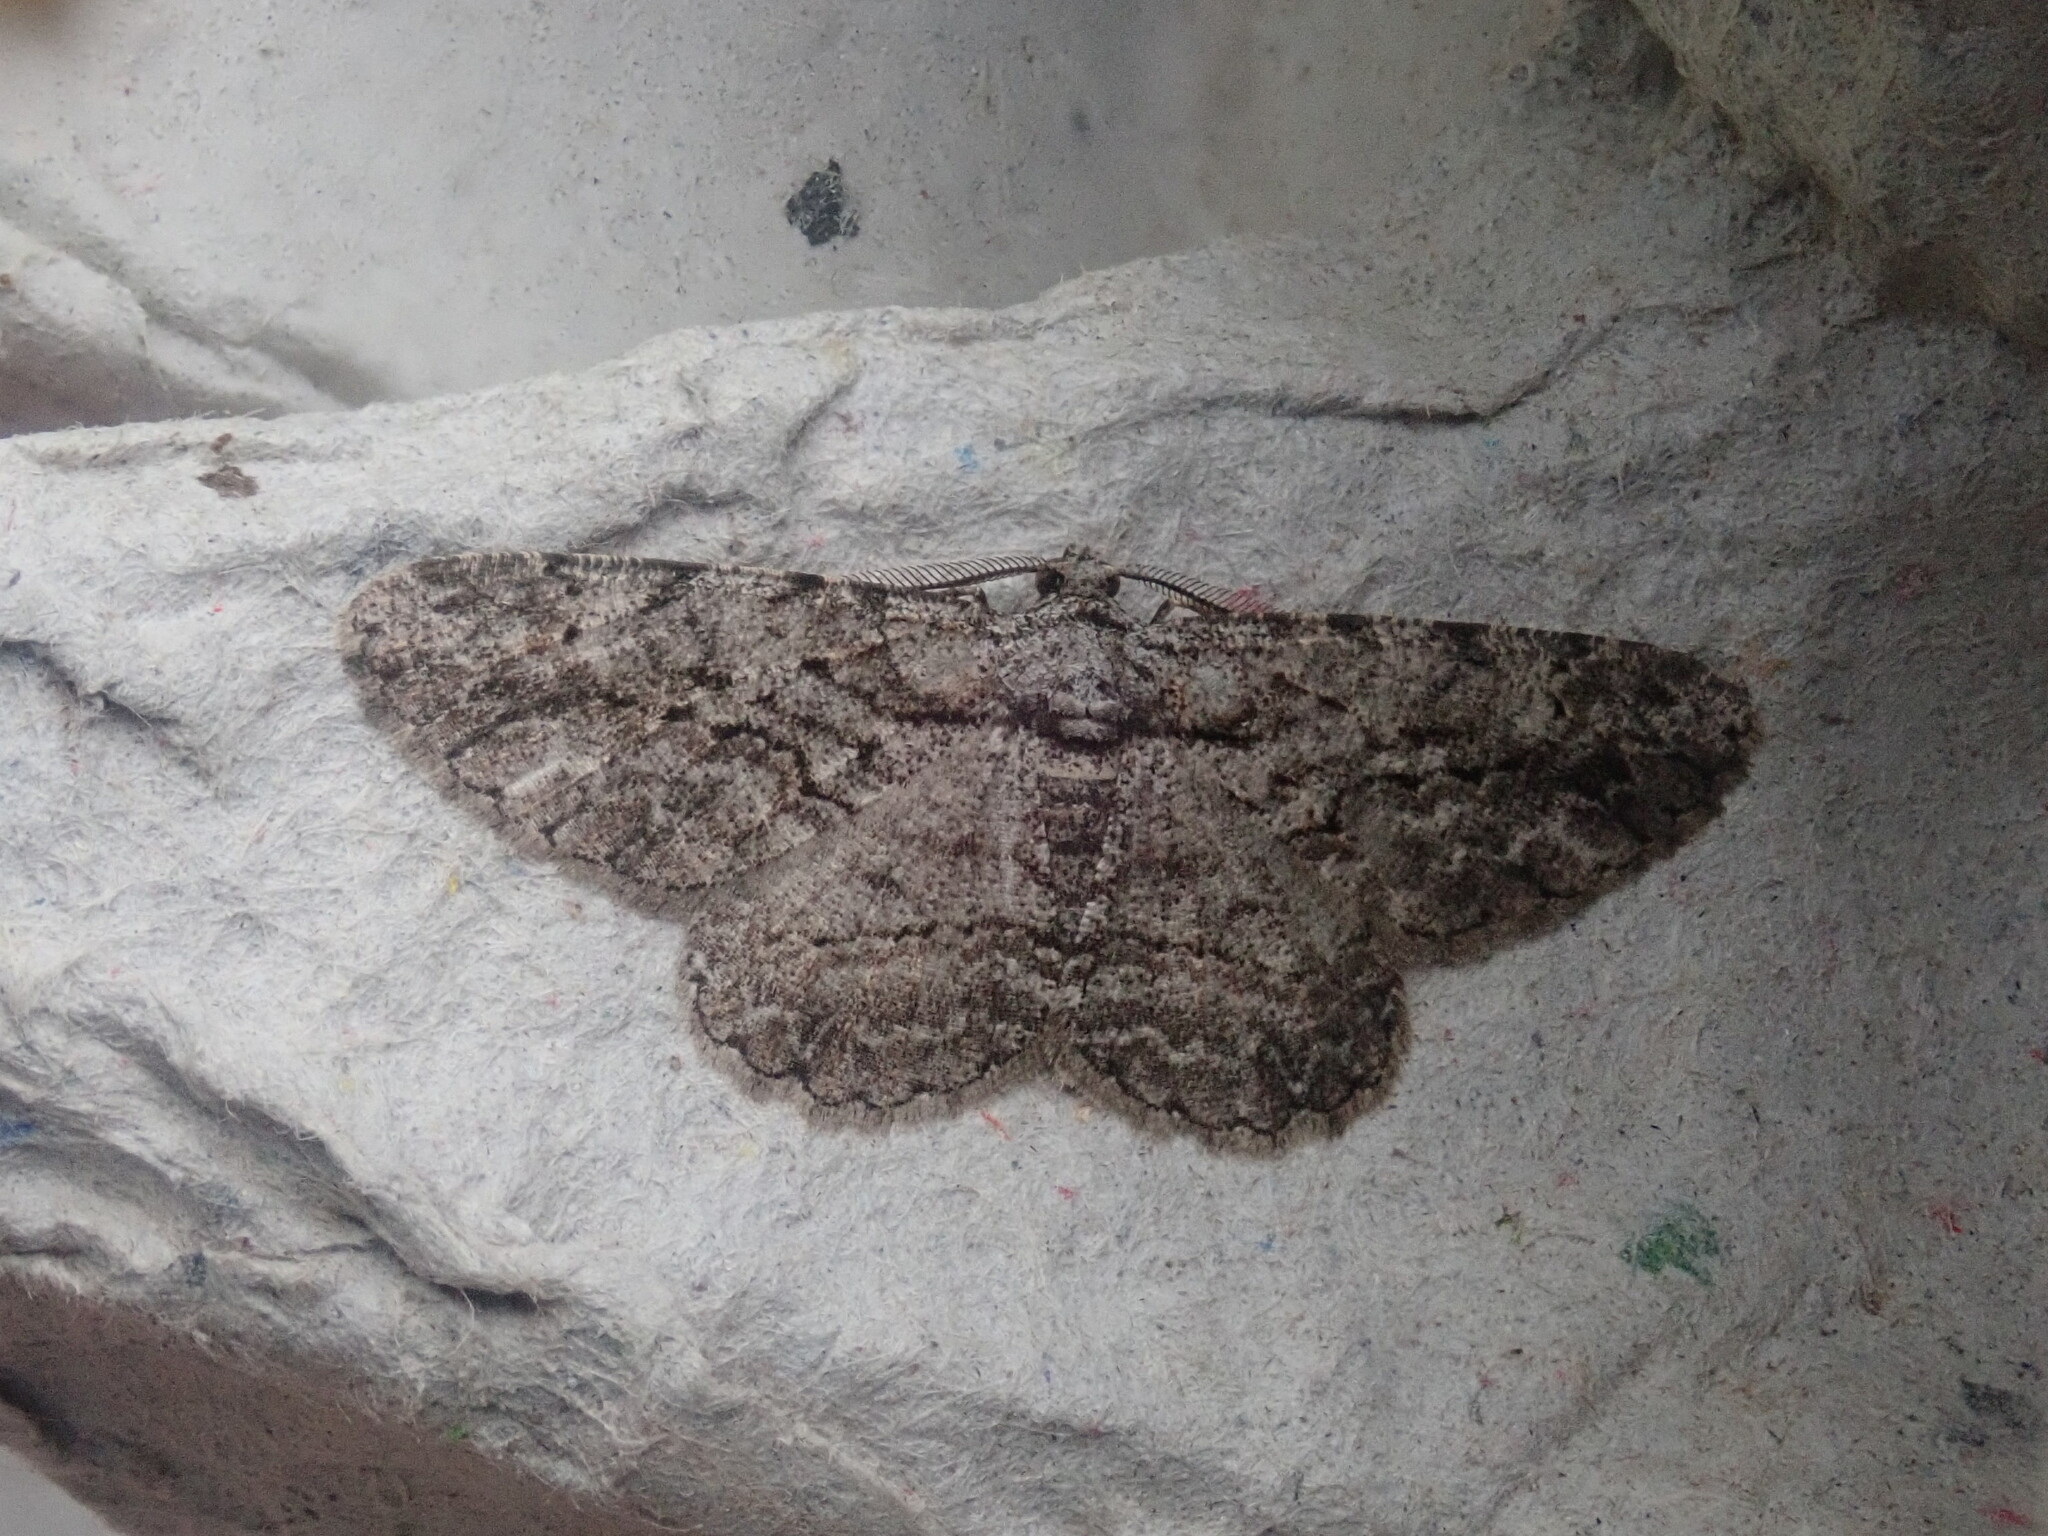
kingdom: Animalia
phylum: Arthropoda
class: Insecta
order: Lepidoptera
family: Geometridae
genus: Anavitrinella
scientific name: Anavitrinella pampinaria
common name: Common gray
